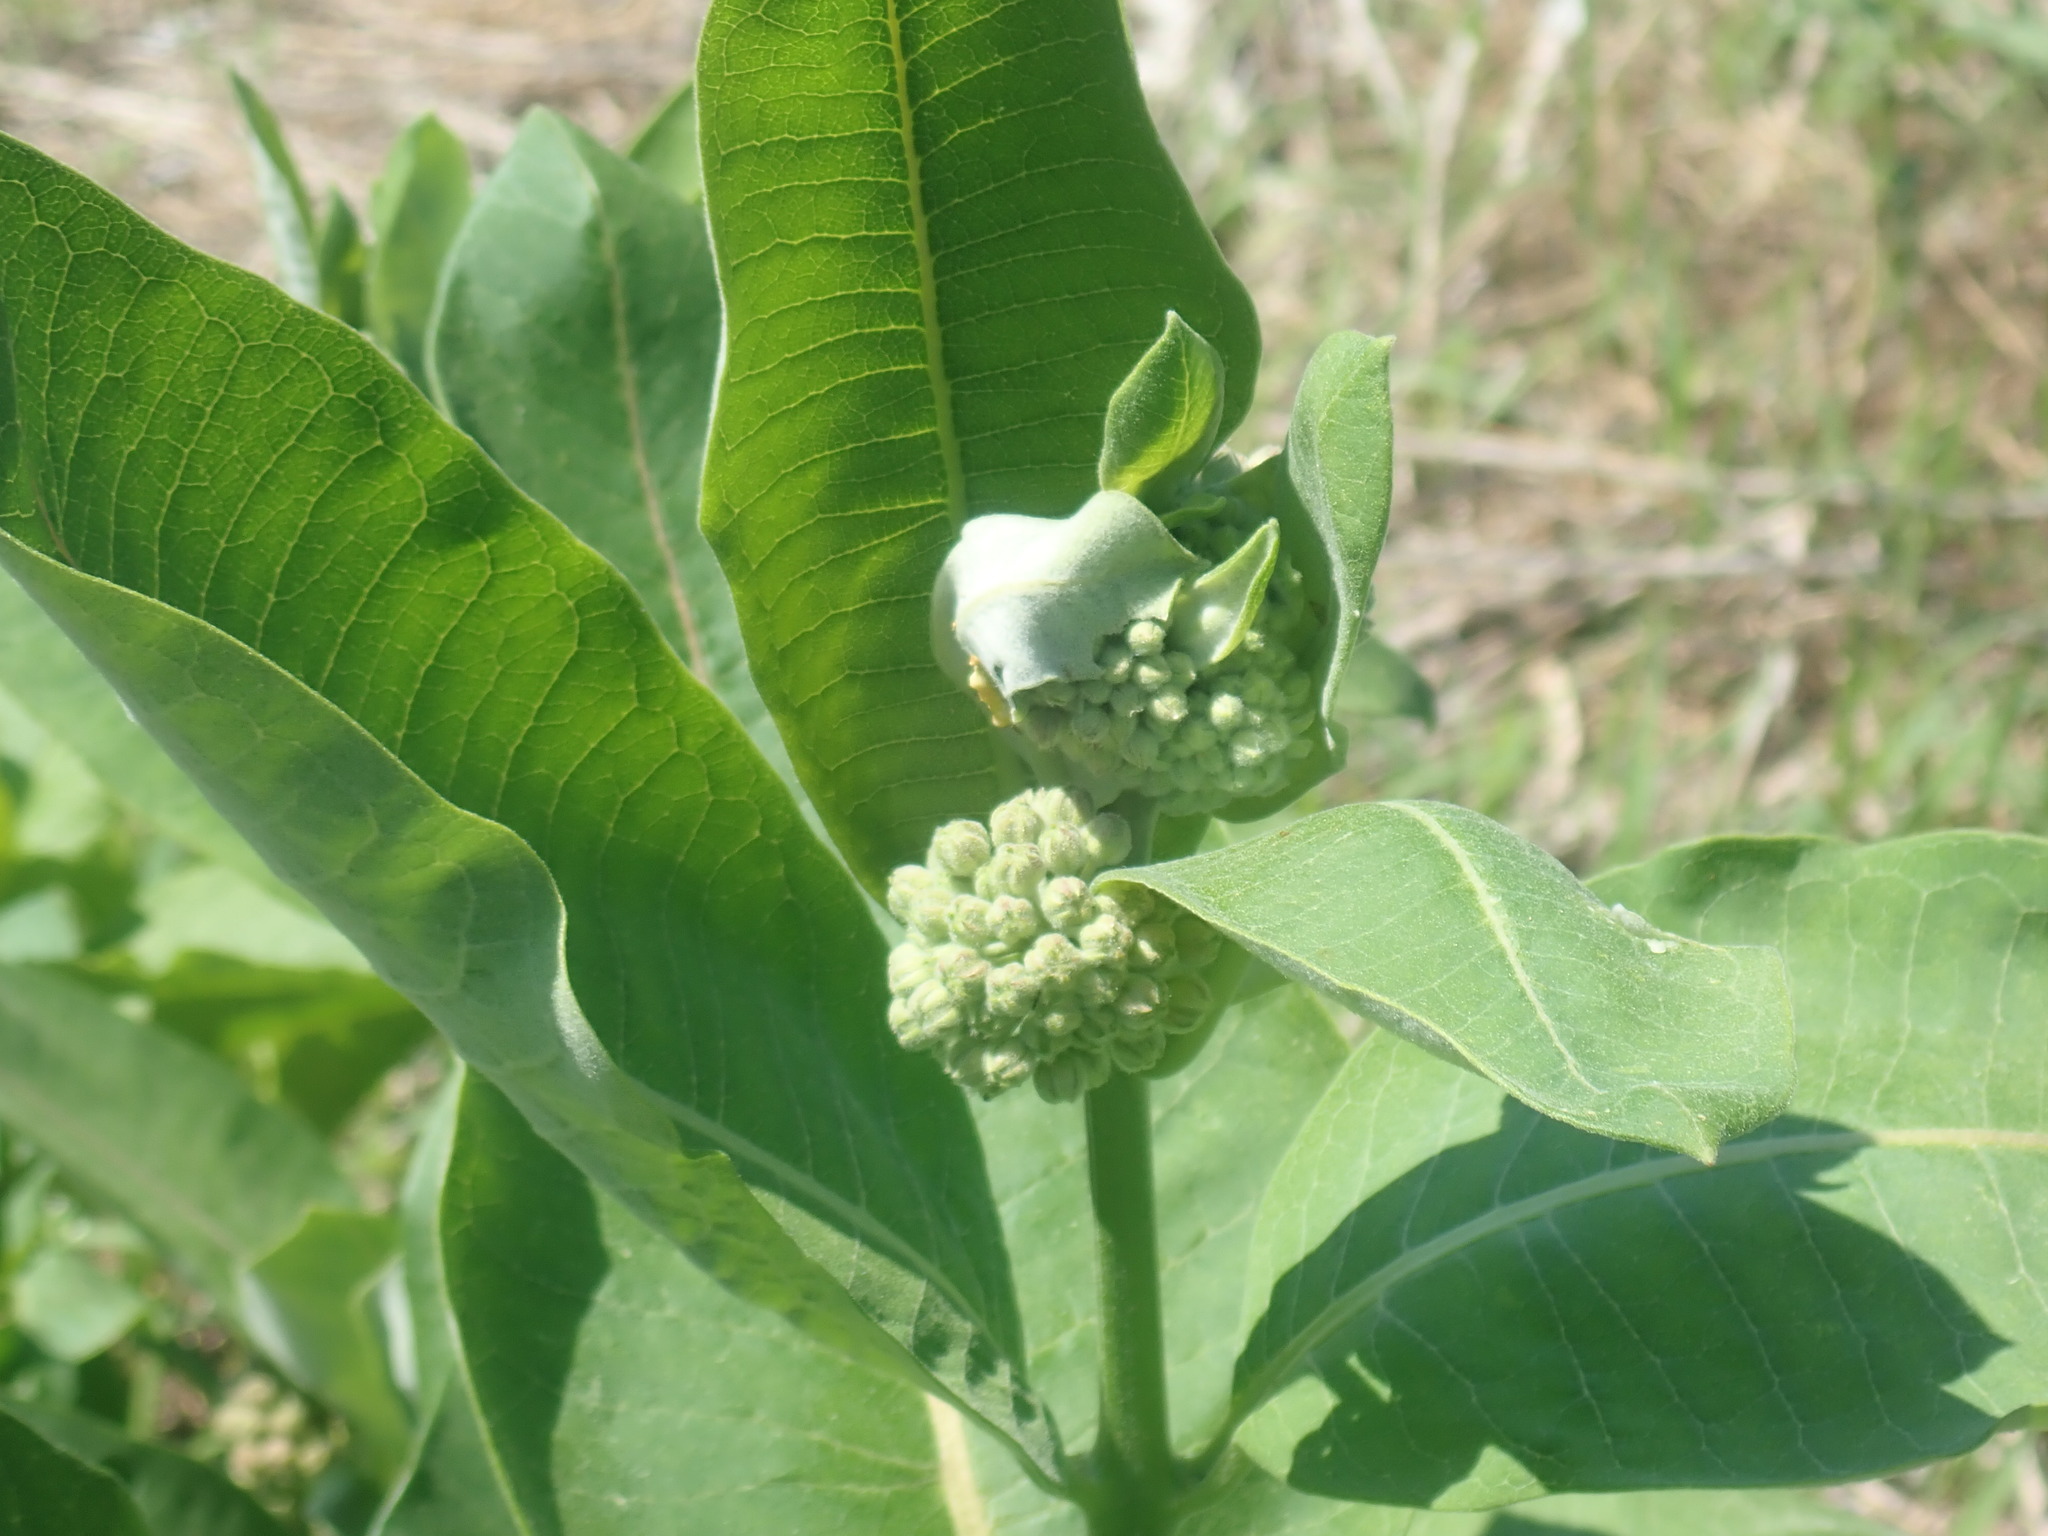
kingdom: Plantae
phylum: Tracheophyta
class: Magnoliopsida
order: Gentianales
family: Apocynaceae
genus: Asclepias
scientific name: Asclepias syriaca
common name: Common milkweed
